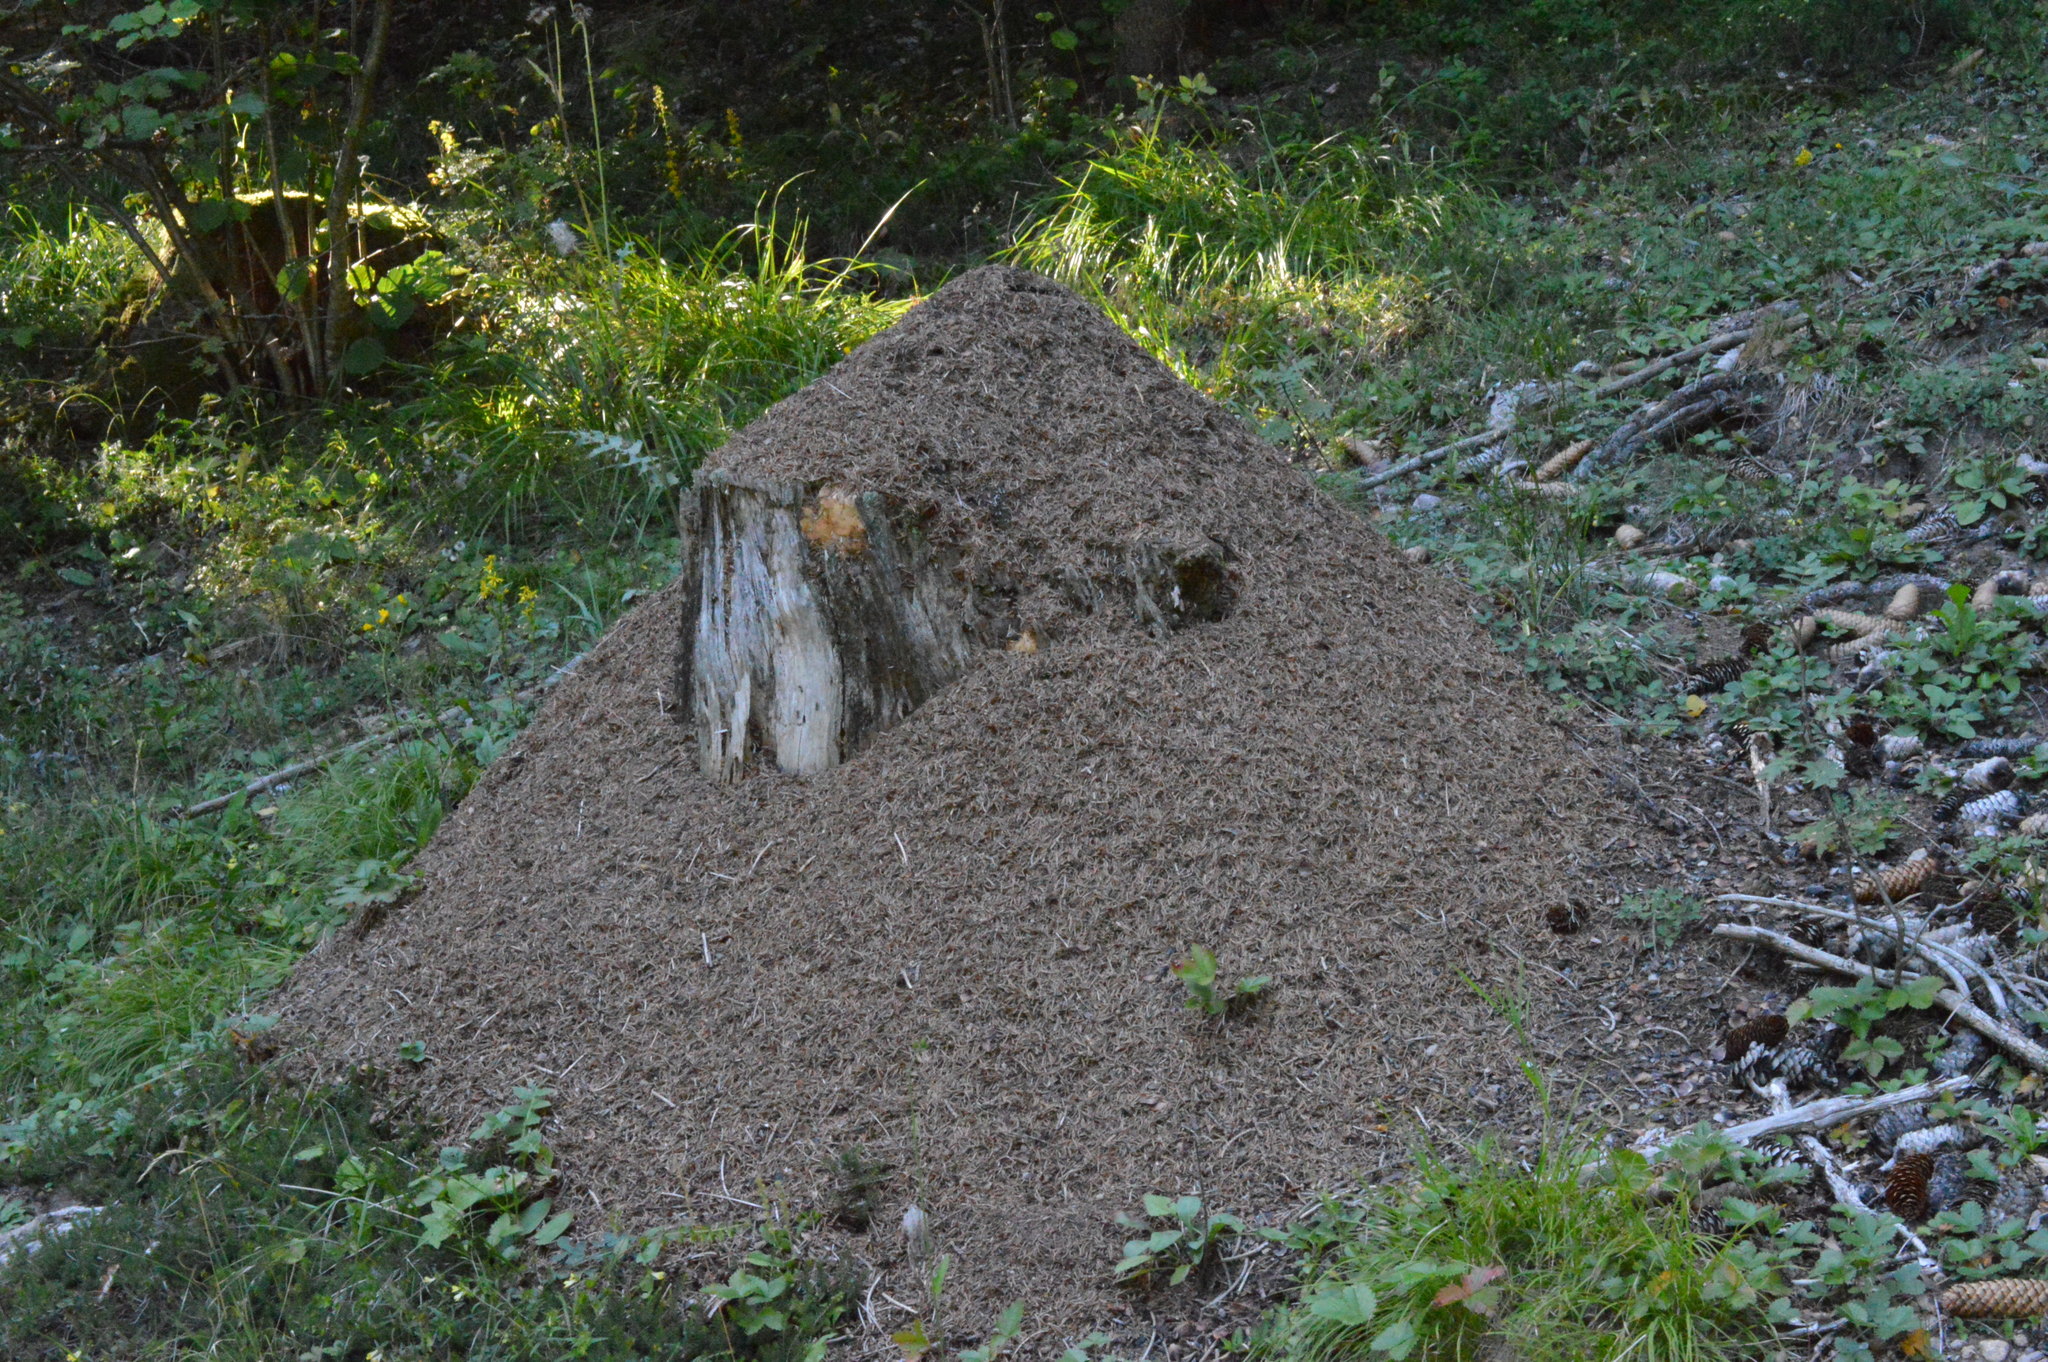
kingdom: Animalia
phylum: Arthropoda
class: Insecta
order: Hymenoptera
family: Formicidae
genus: Formica
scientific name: Formica rufa
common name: Red wood ant
